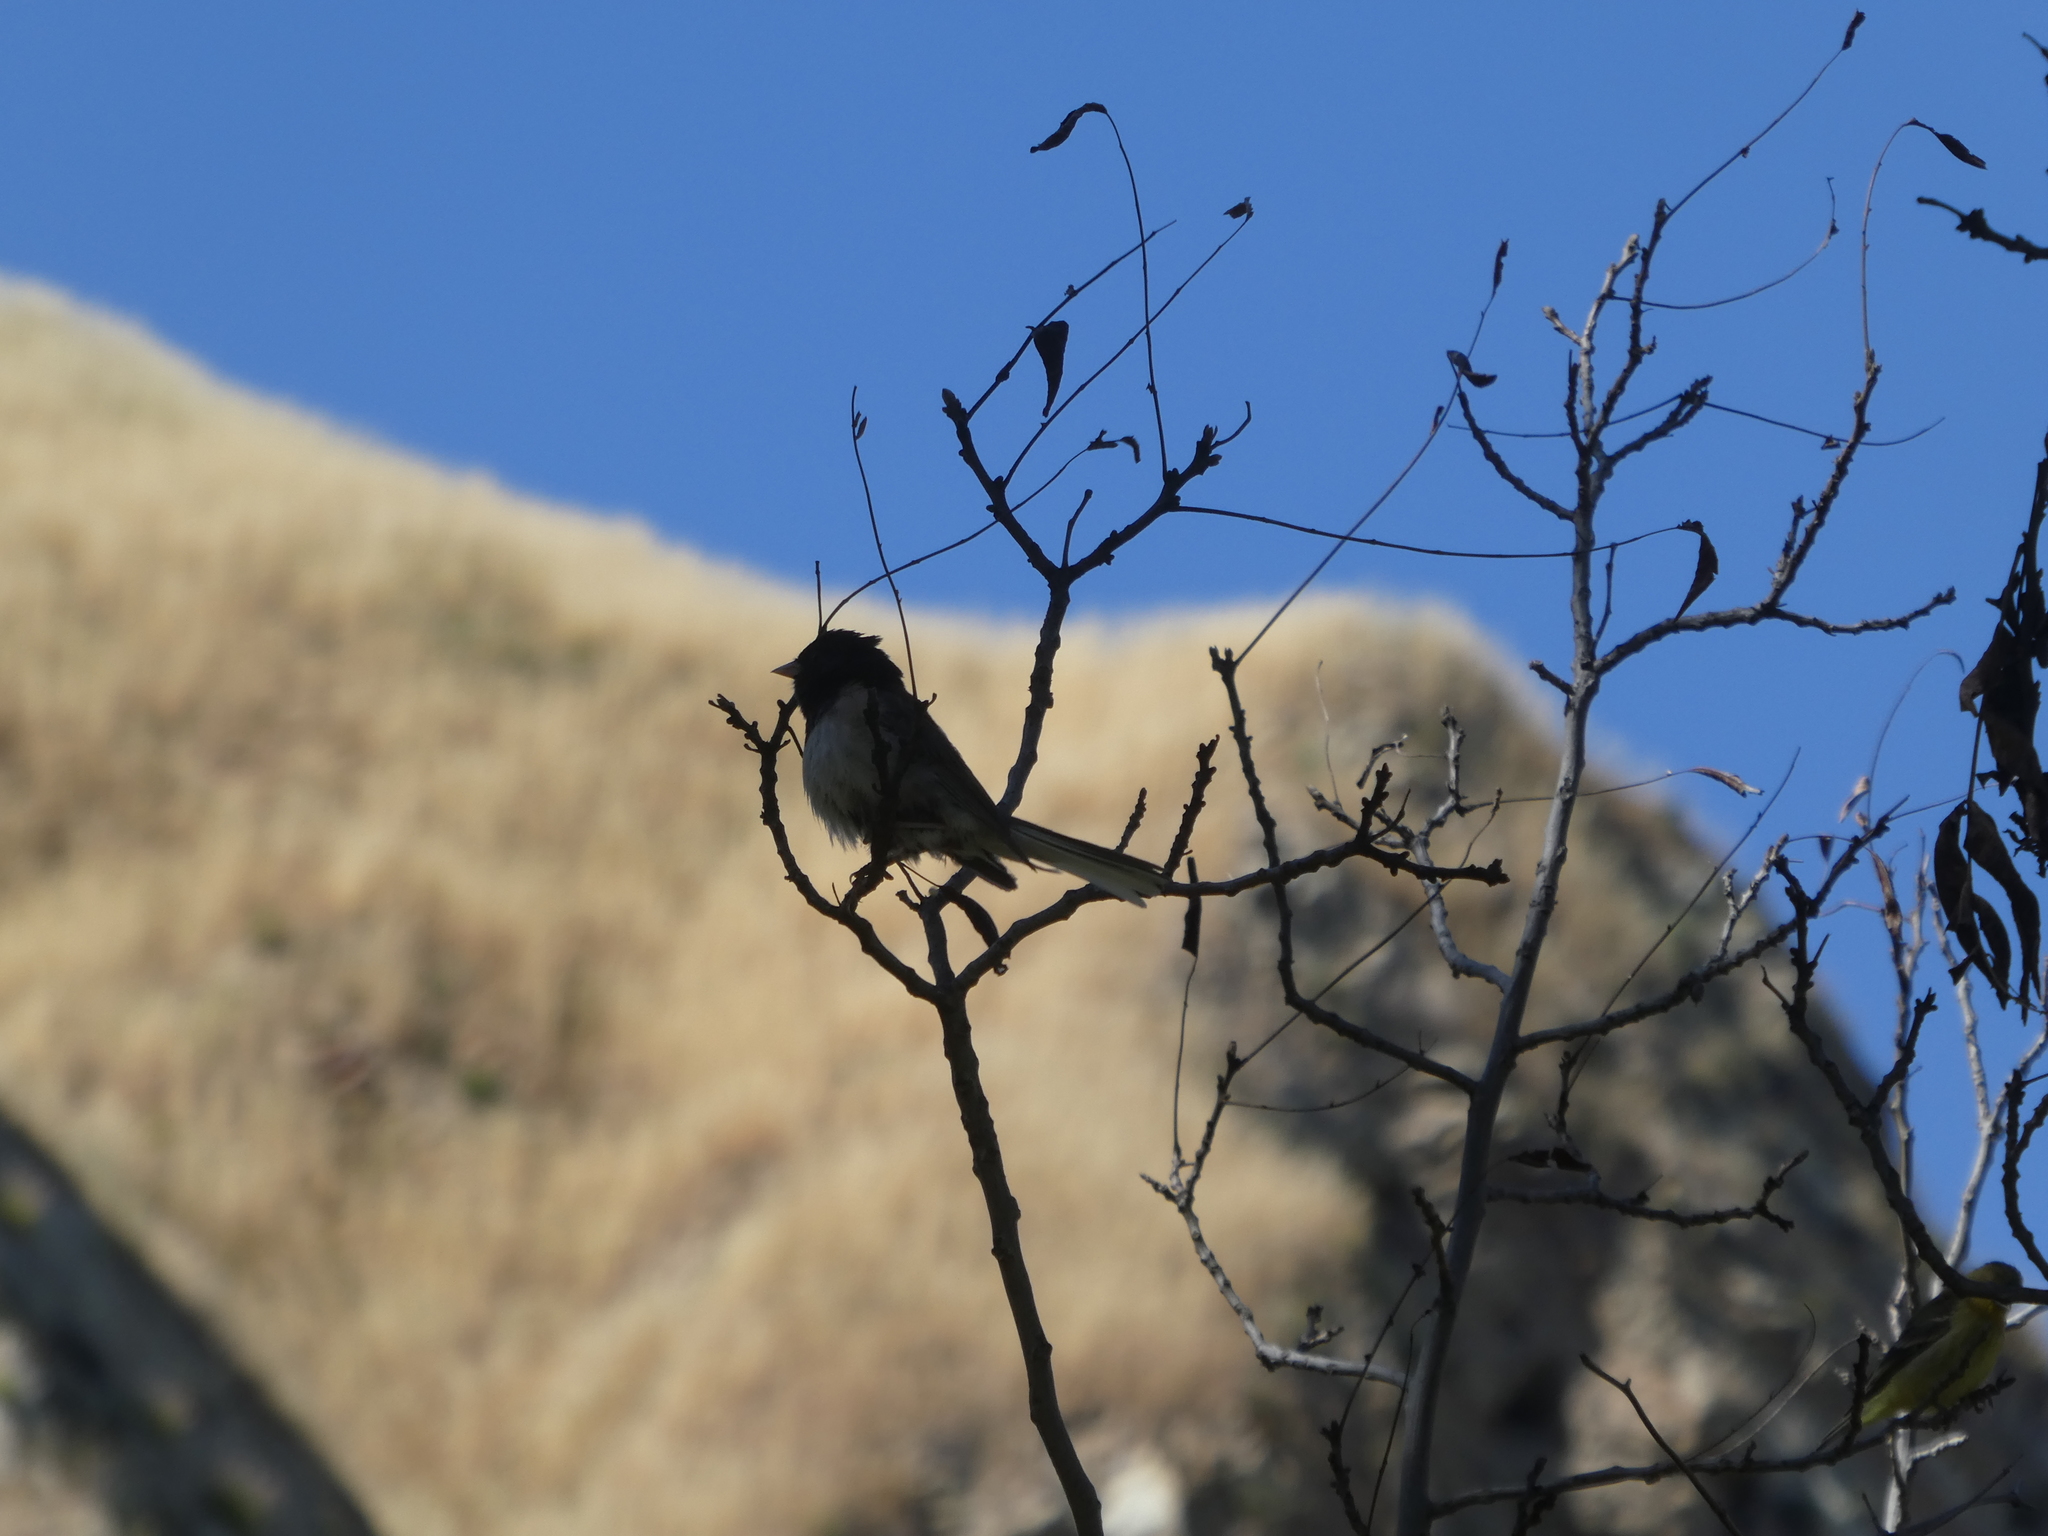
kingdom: Animalia
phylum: Chordata
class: Aves
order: Passeriformes
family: Passerellidae
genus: Junco
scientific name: Junco hyemalis
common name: Dark-eyed junco
